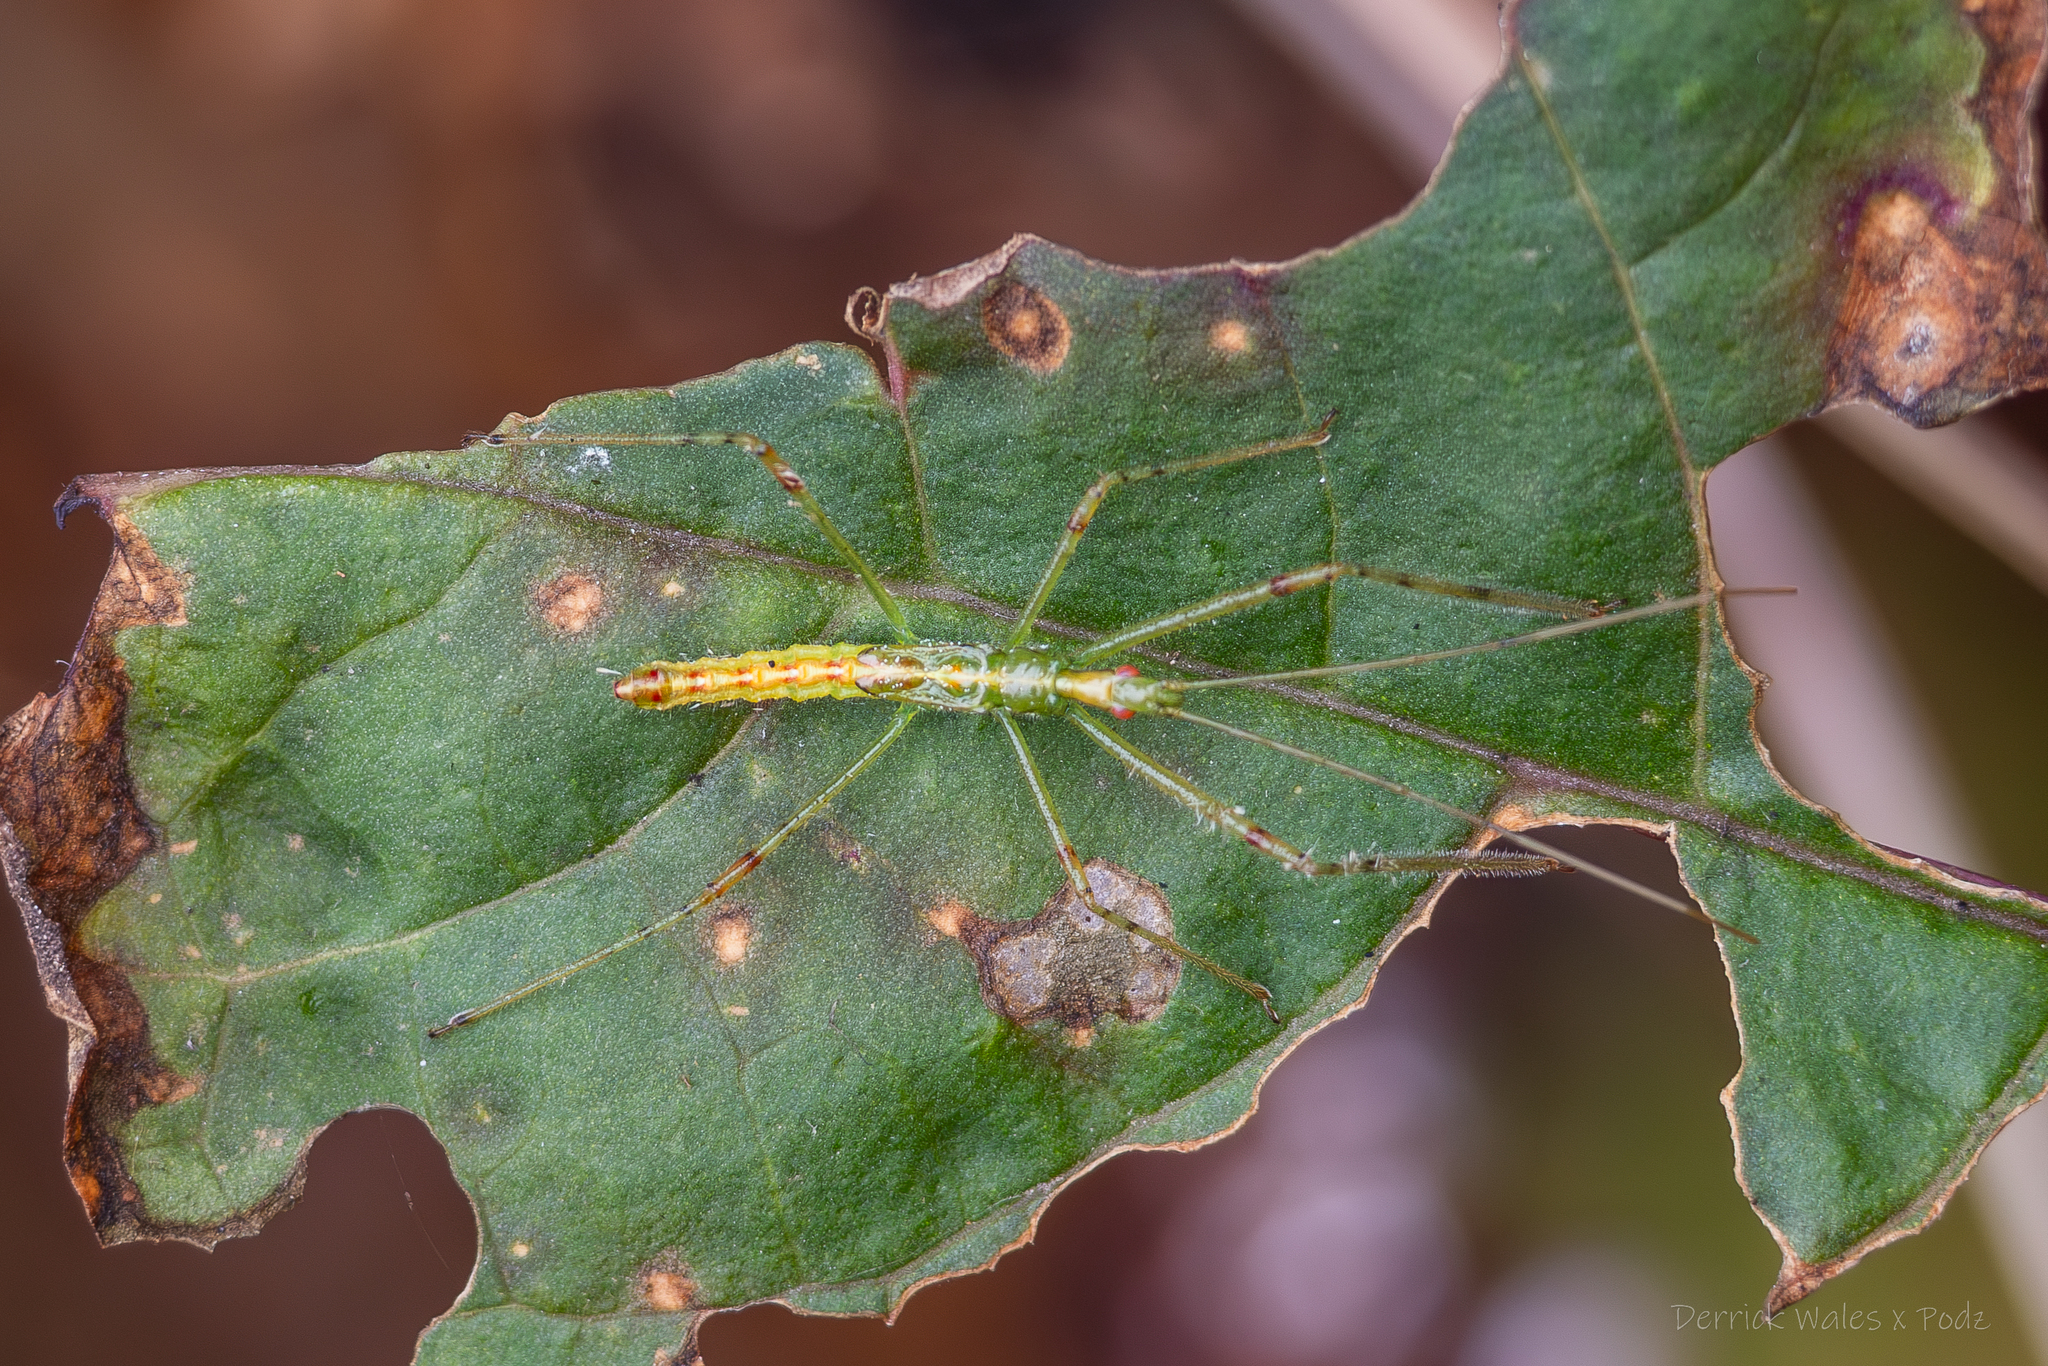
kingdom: Animalia
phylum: Arthropoda
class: Insecta
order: Hemiptera
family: Reduviidae
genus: Zelus
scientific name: Zelus luridus
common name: Pale green assassin bug
